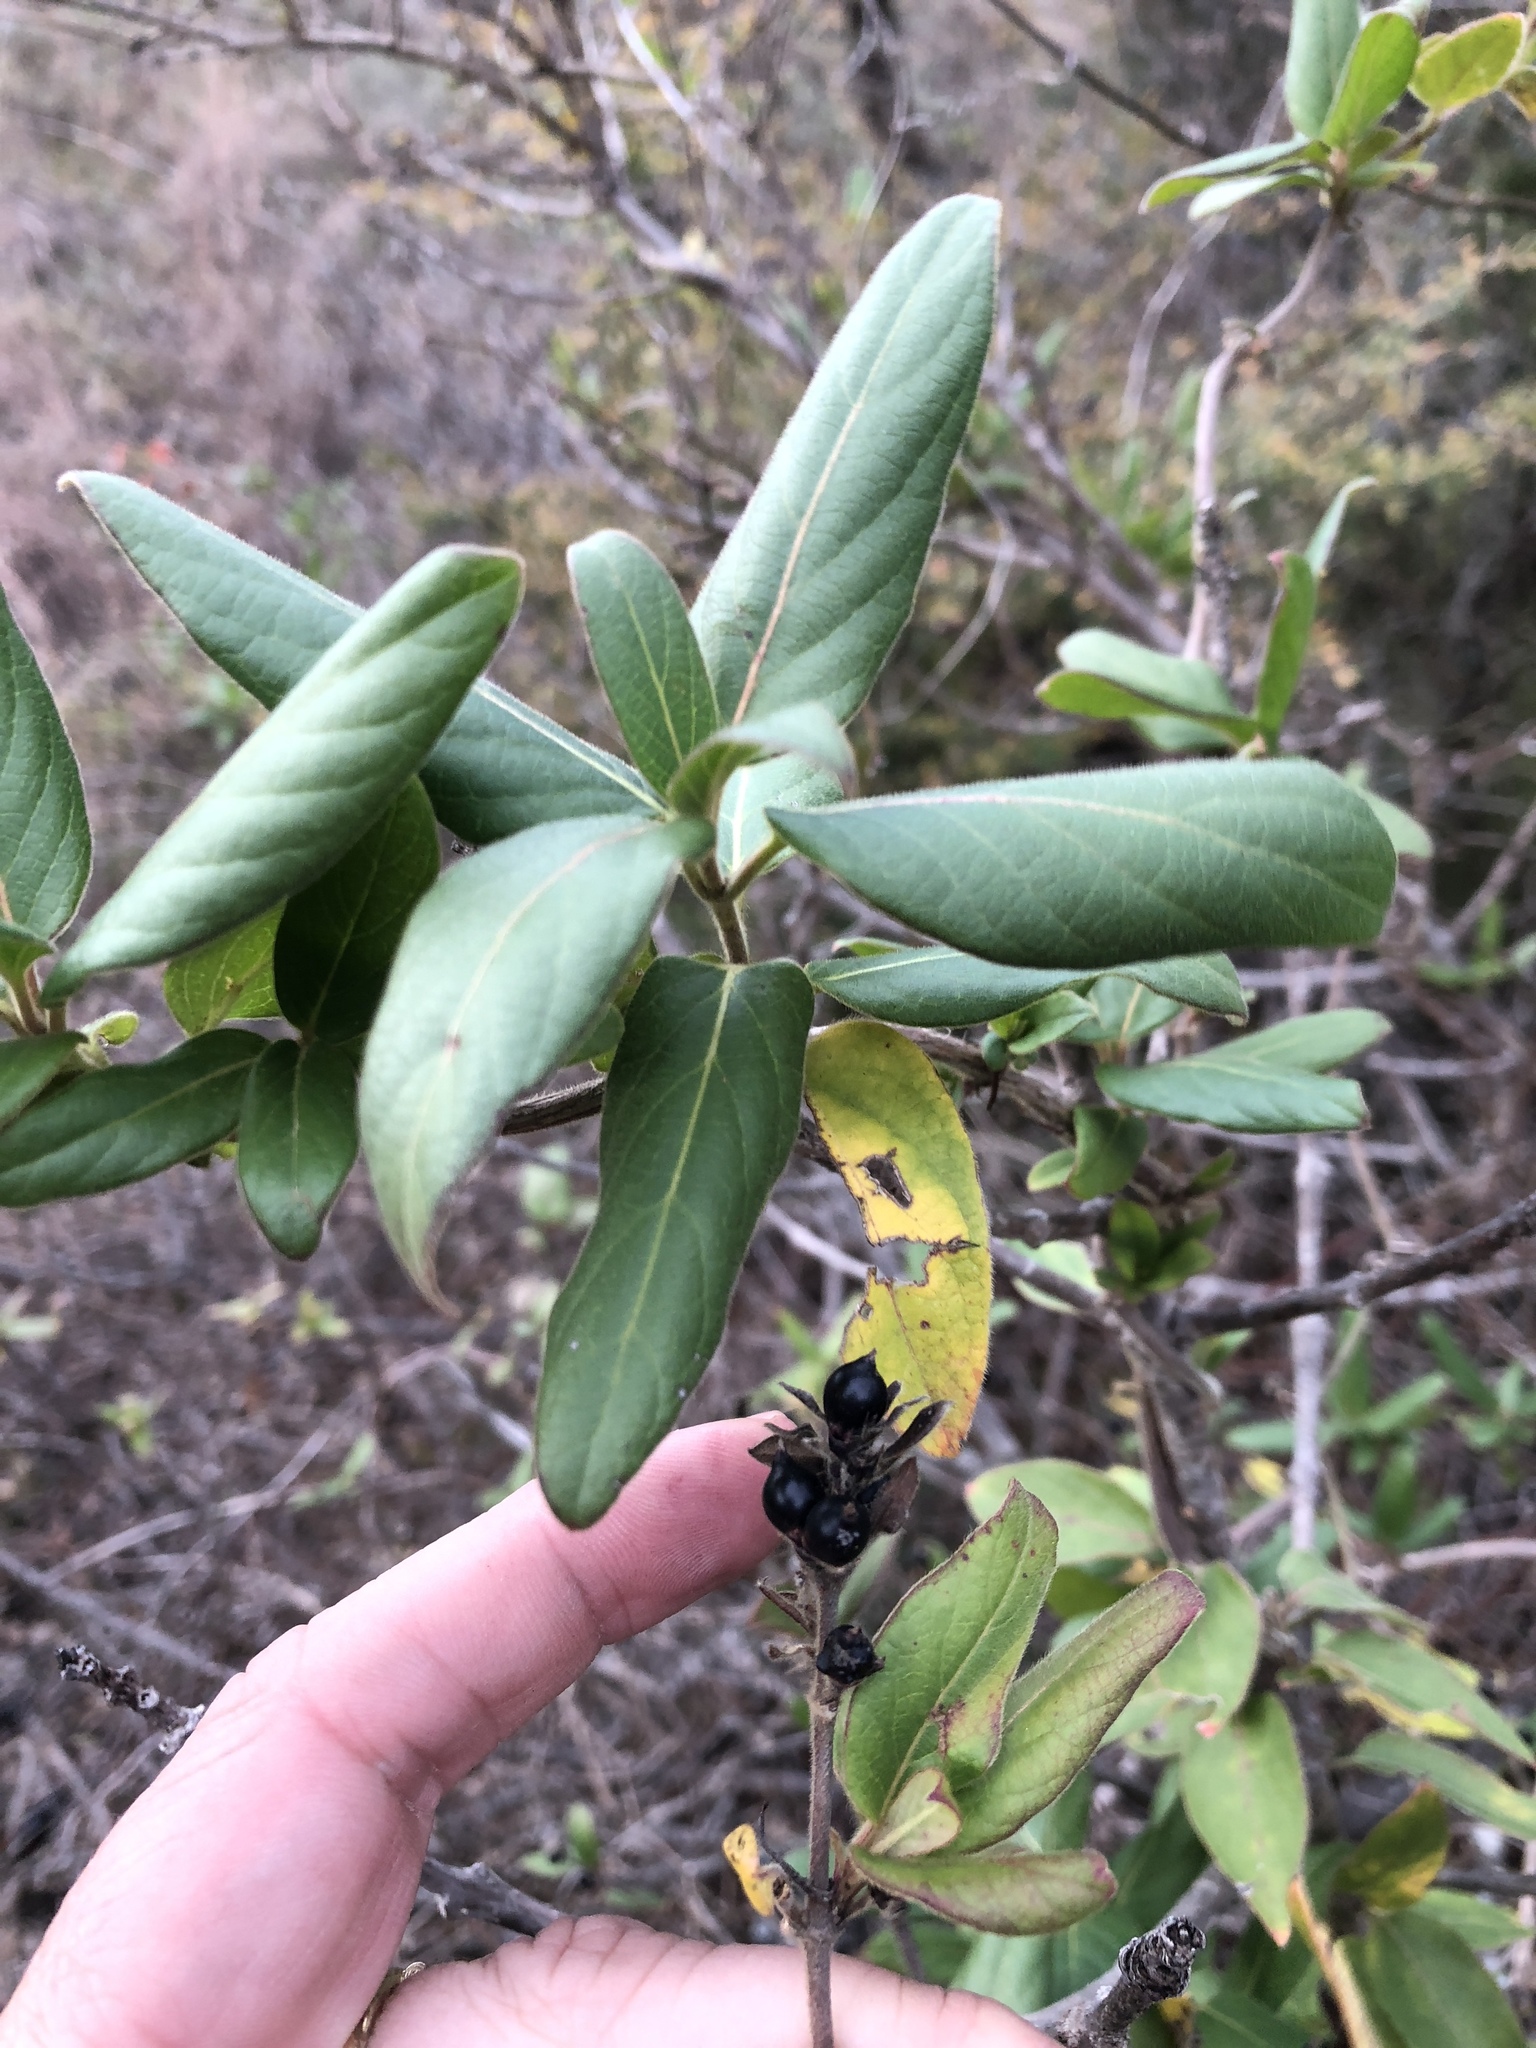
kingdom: Plantae
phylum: Tracheophyta
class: Magnoliopsida
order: Dipsacales
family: Caprifoliaceae
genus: Lonicera
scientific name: Lonicera japonica
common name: Japanese honeysuckle
